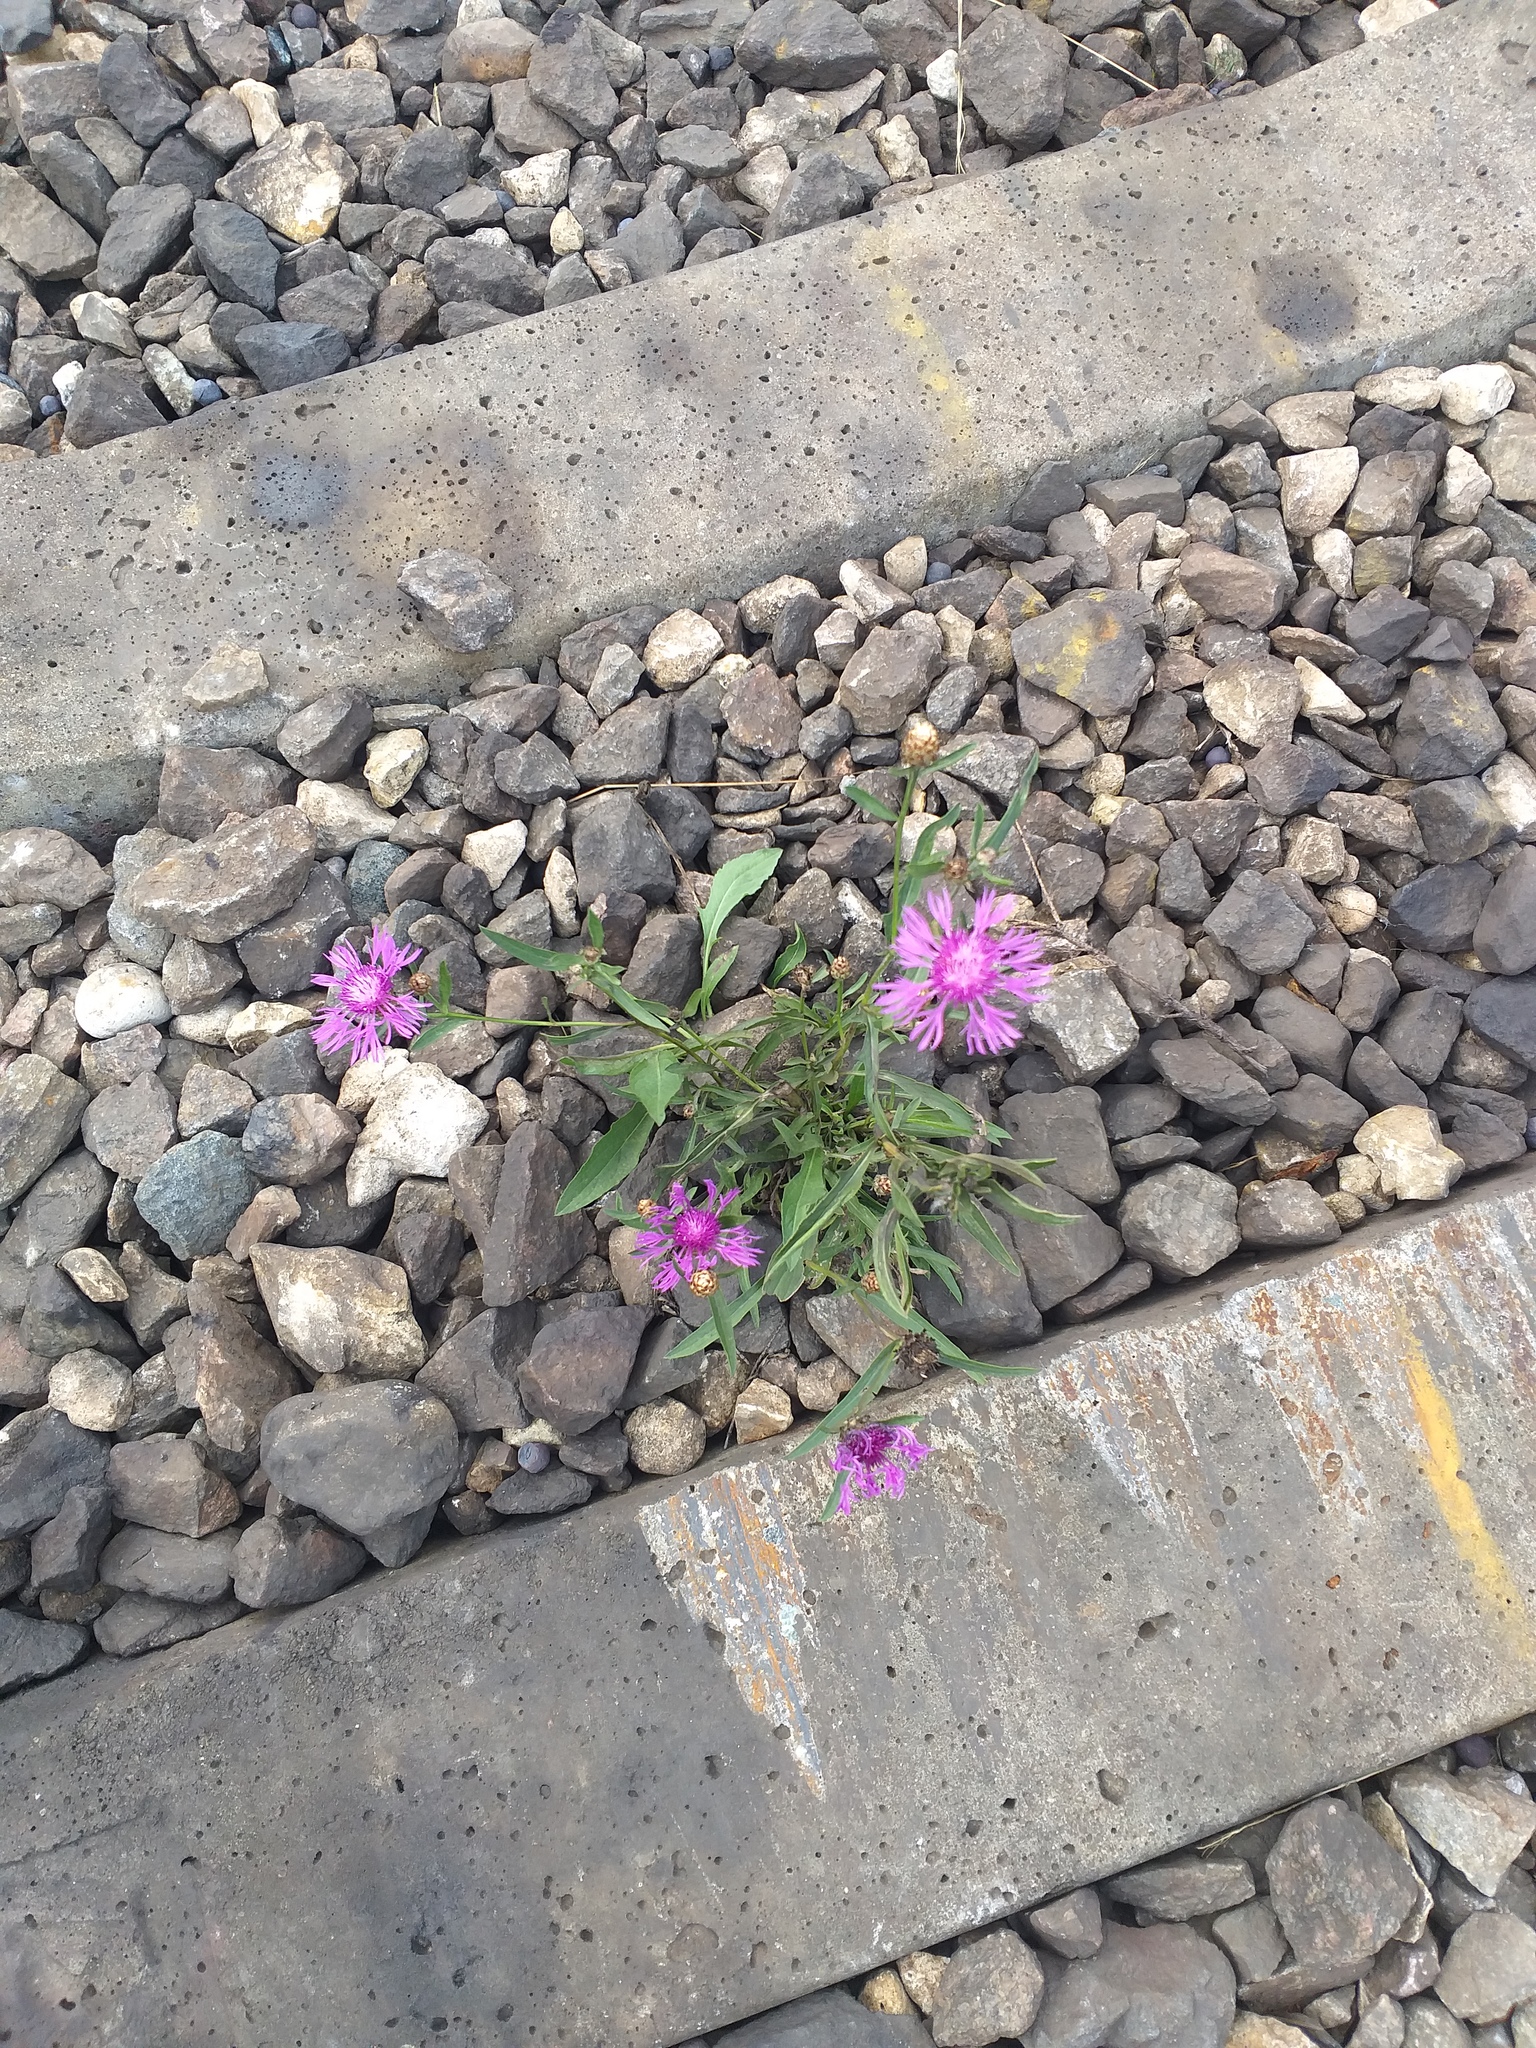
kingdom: Plantae
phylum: Tracheophyta
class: Magnoliopsida
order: Asterales
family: Asteraceae
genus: Centaurea
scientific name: Centaurea jacea
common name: Brown knapweed
